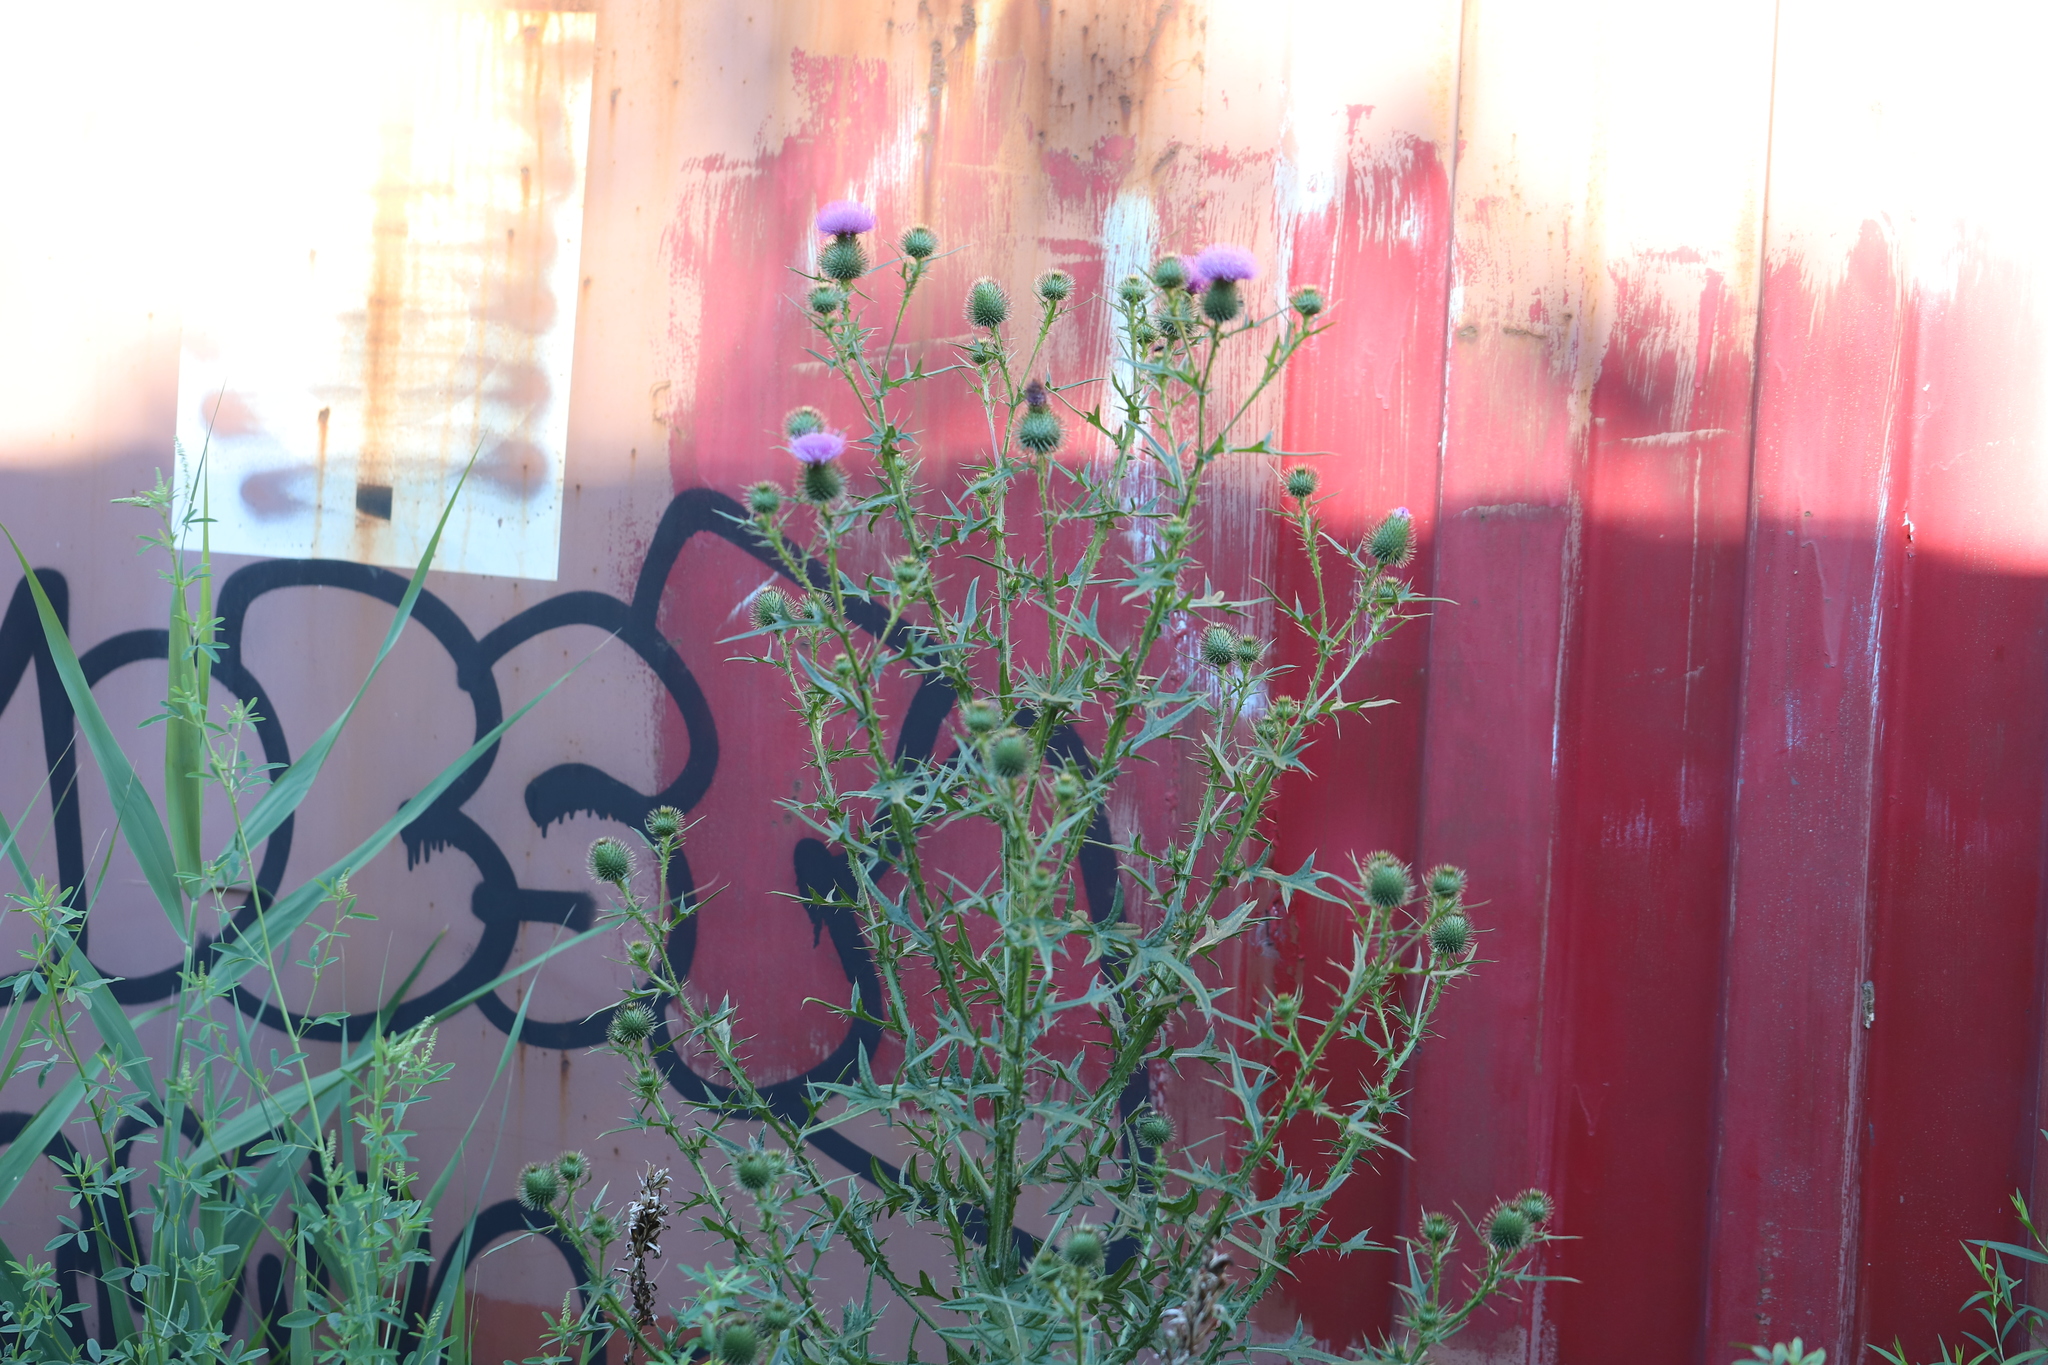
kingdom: Plantae
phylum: Tracheophyta
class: Magnoliopsida
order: Asterales
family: Asteraceae
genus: Cirsium
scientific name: Cirsium vulgare
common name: Bull thistle
